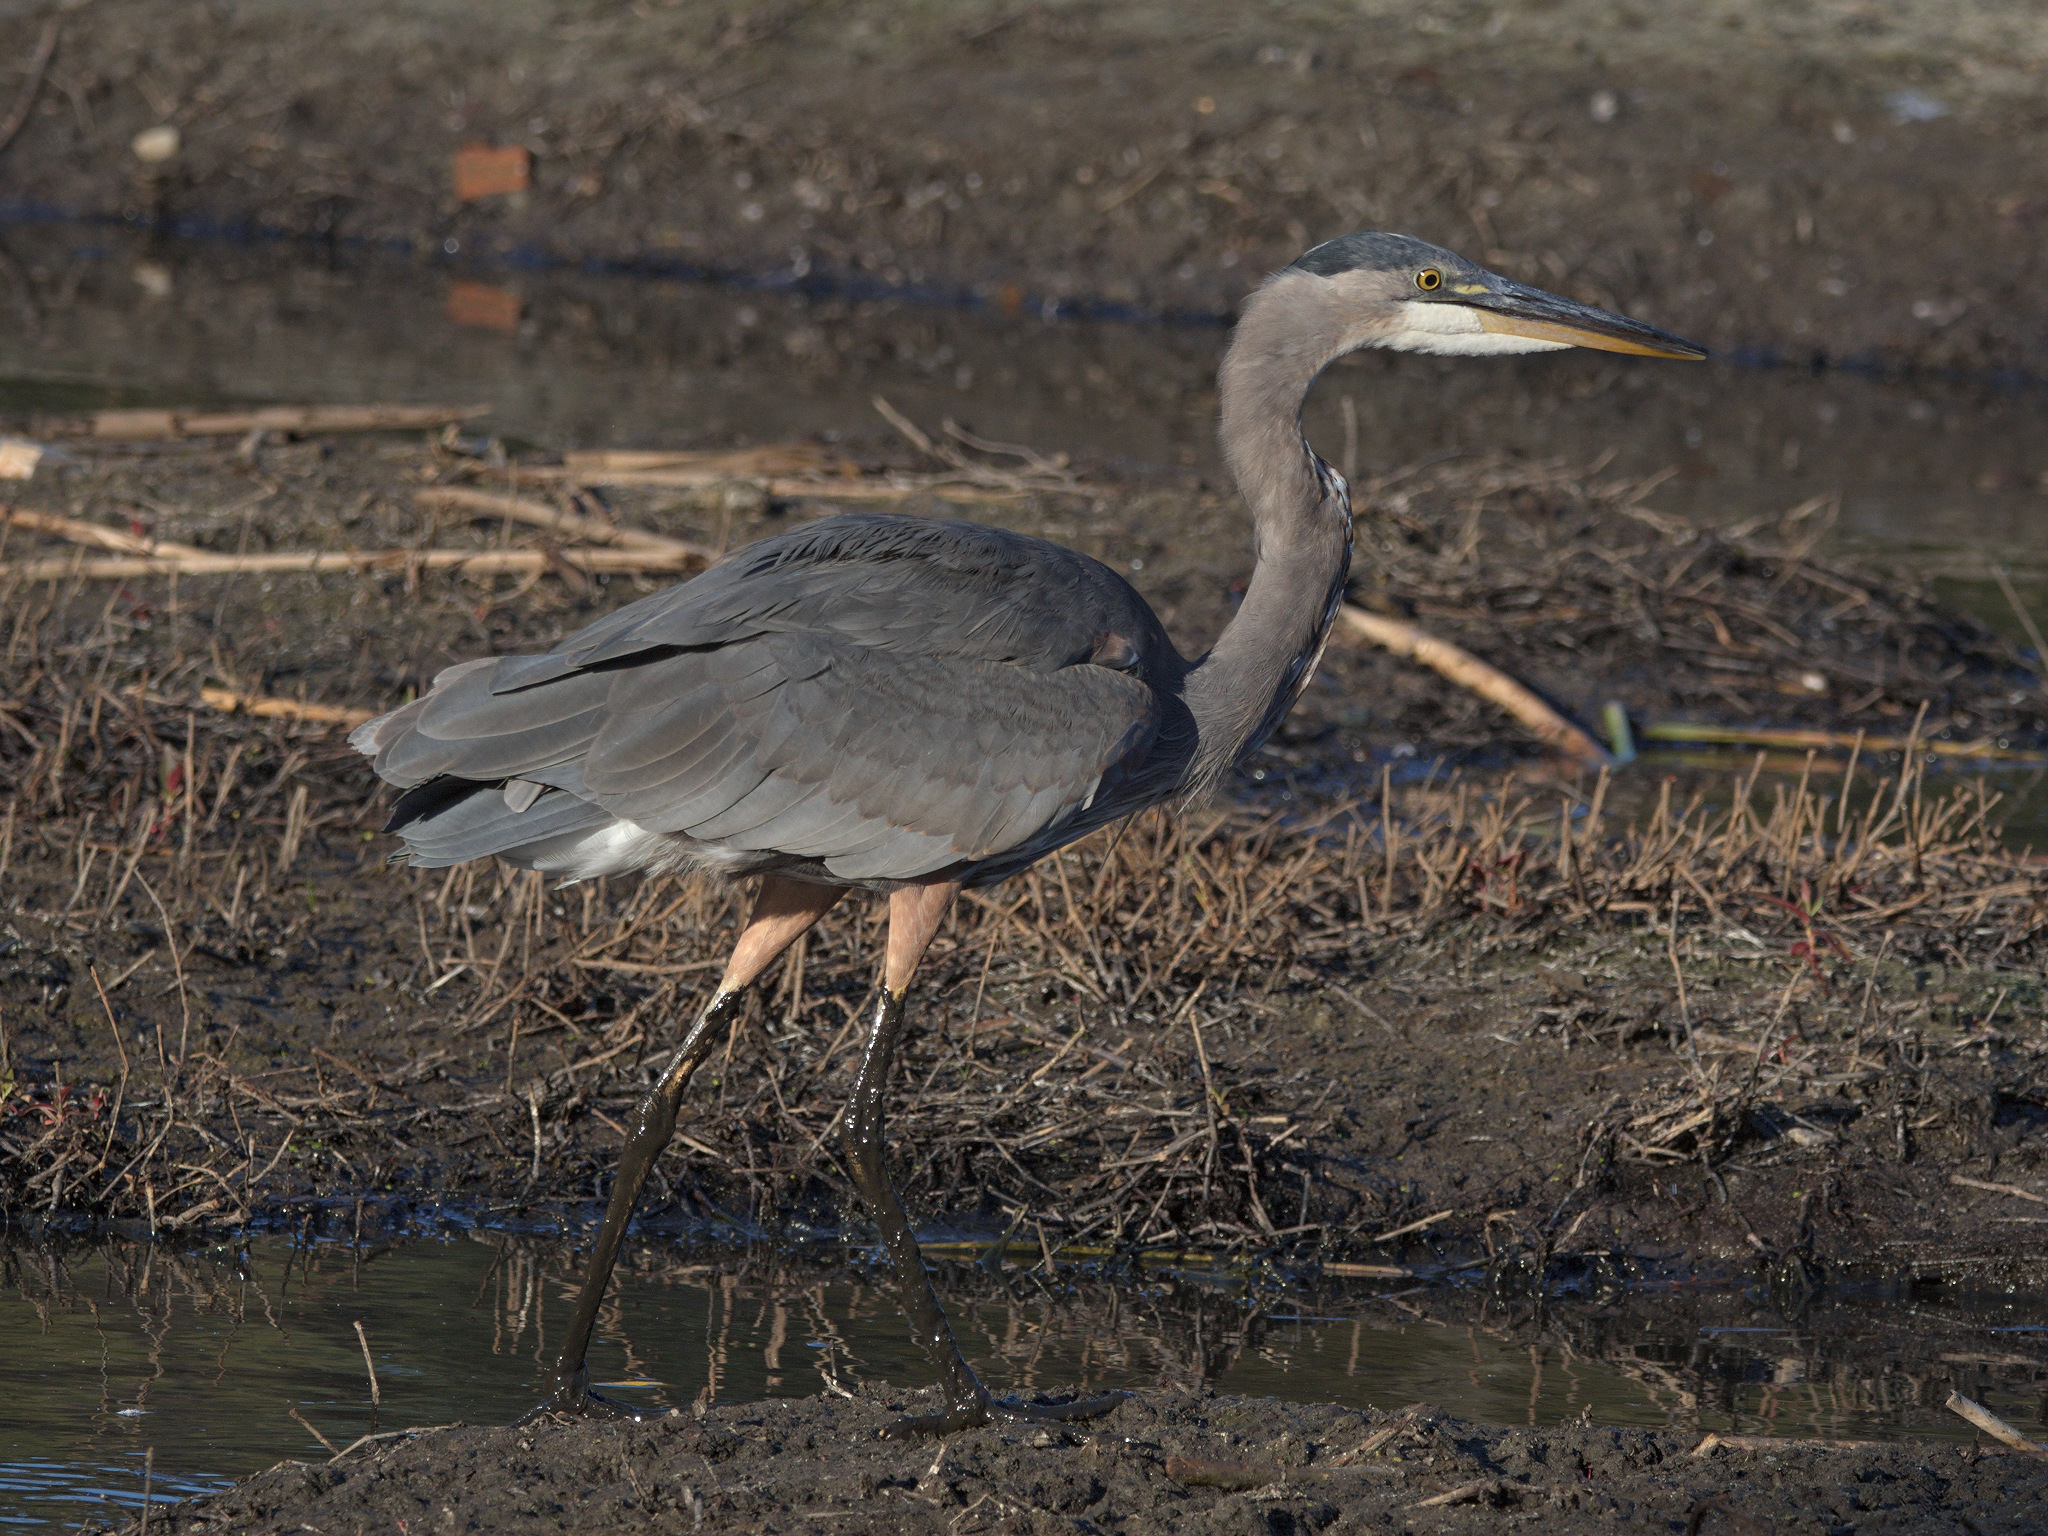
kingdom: Animalia
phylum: Chordata
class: Aves
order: Pelecaniformes
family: Ardeidae
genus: Ardea
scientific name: Ardea herodias
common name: Great blue heron
